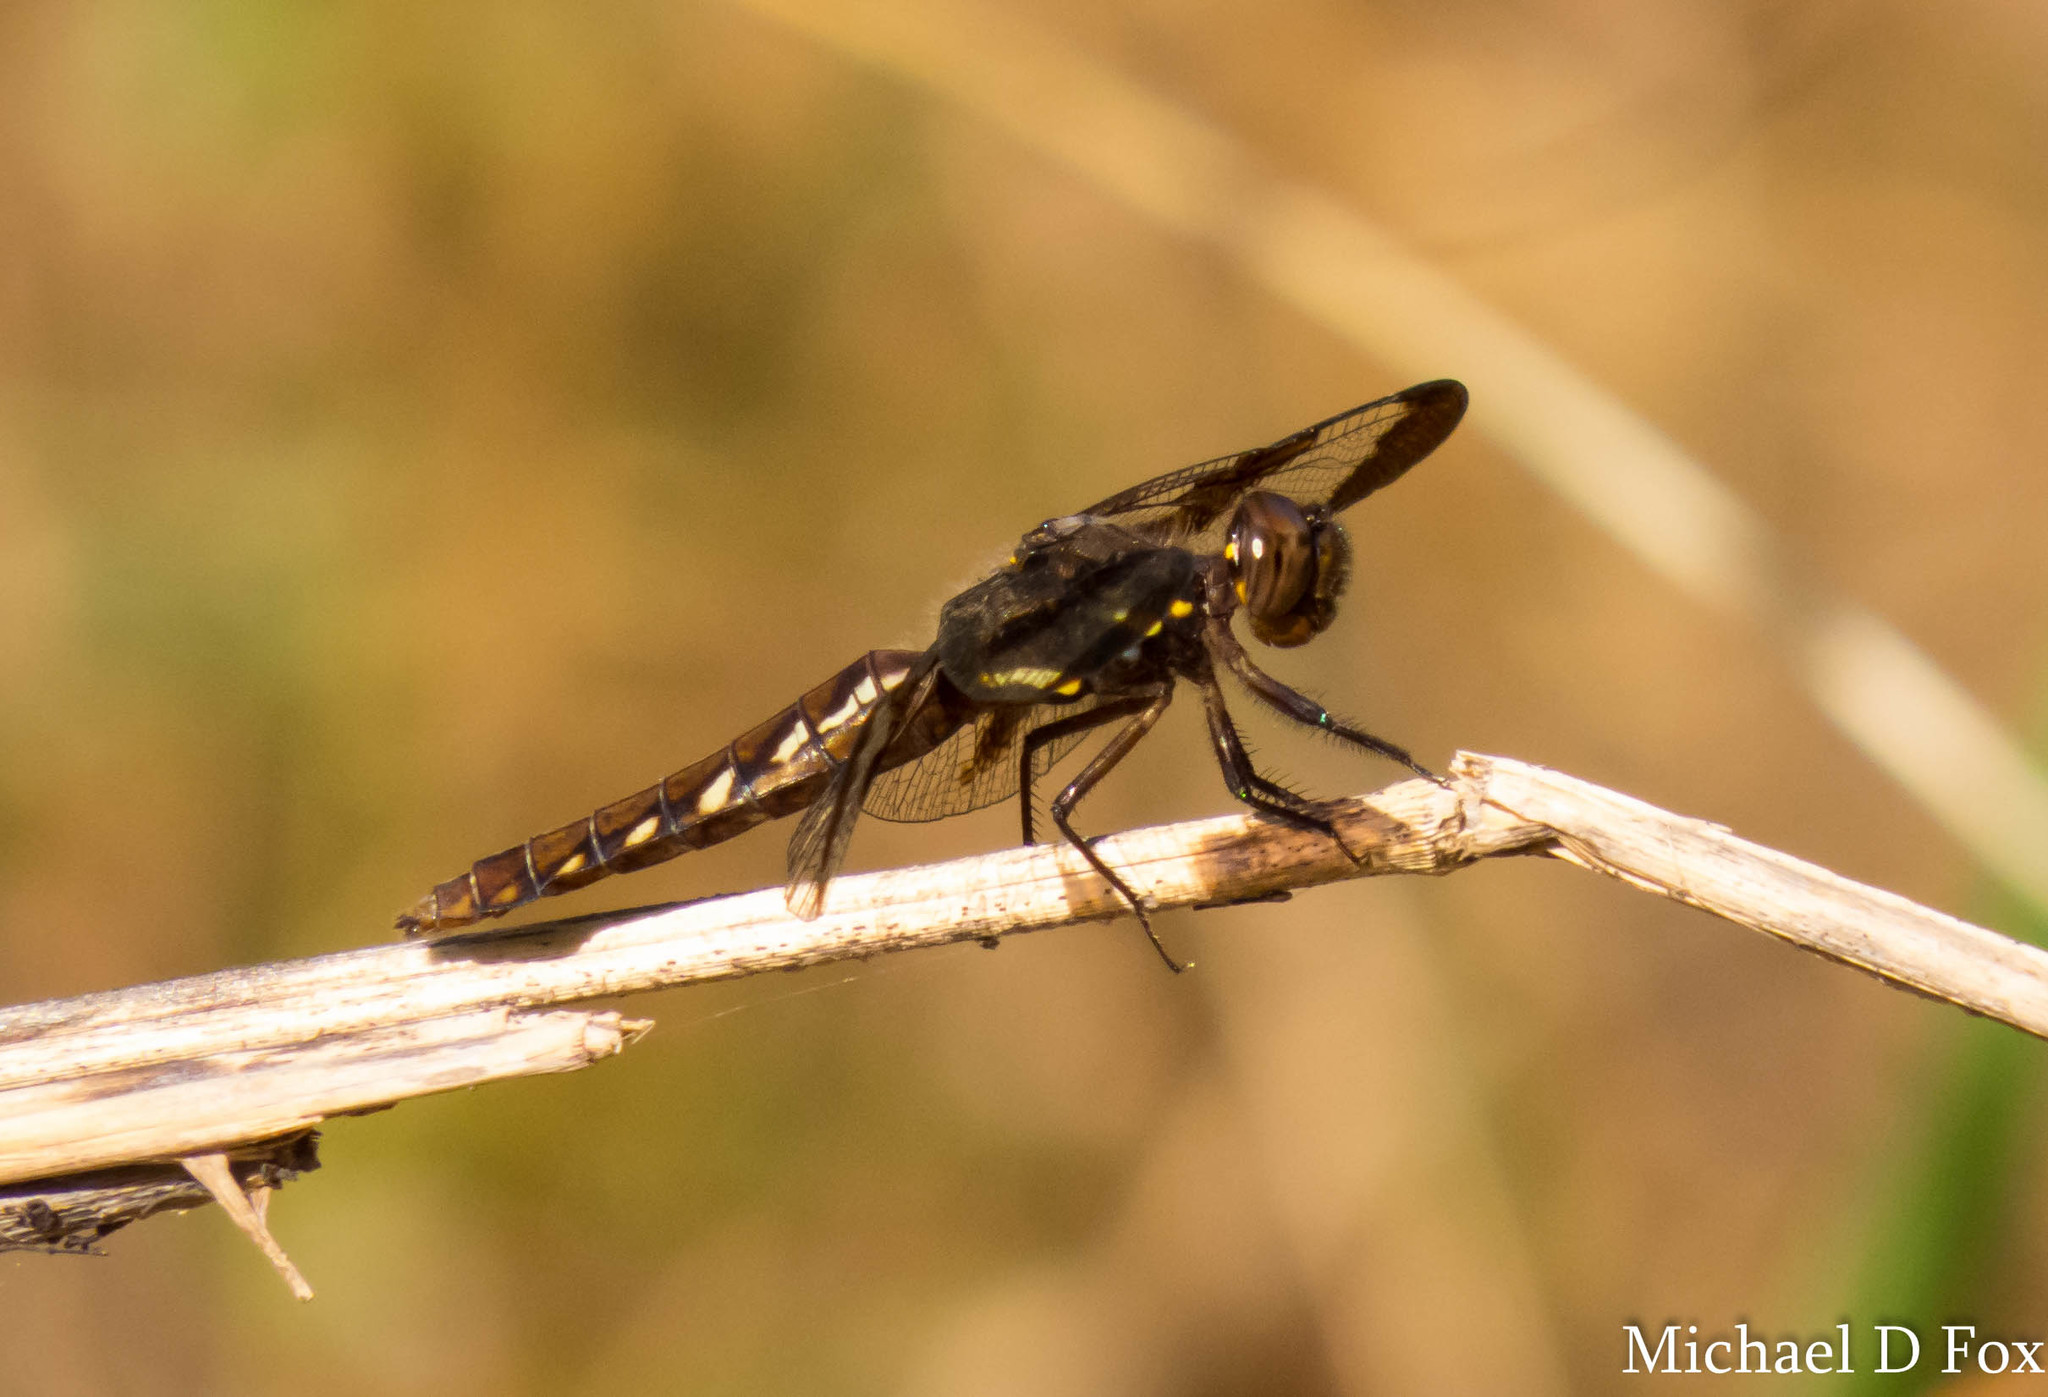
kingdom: Animalia
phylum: Arthropoda
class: Insecta
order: Odonata
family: Libellulidae
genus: Plathemis
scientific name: Plathemis lydia
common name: Common whitetail
